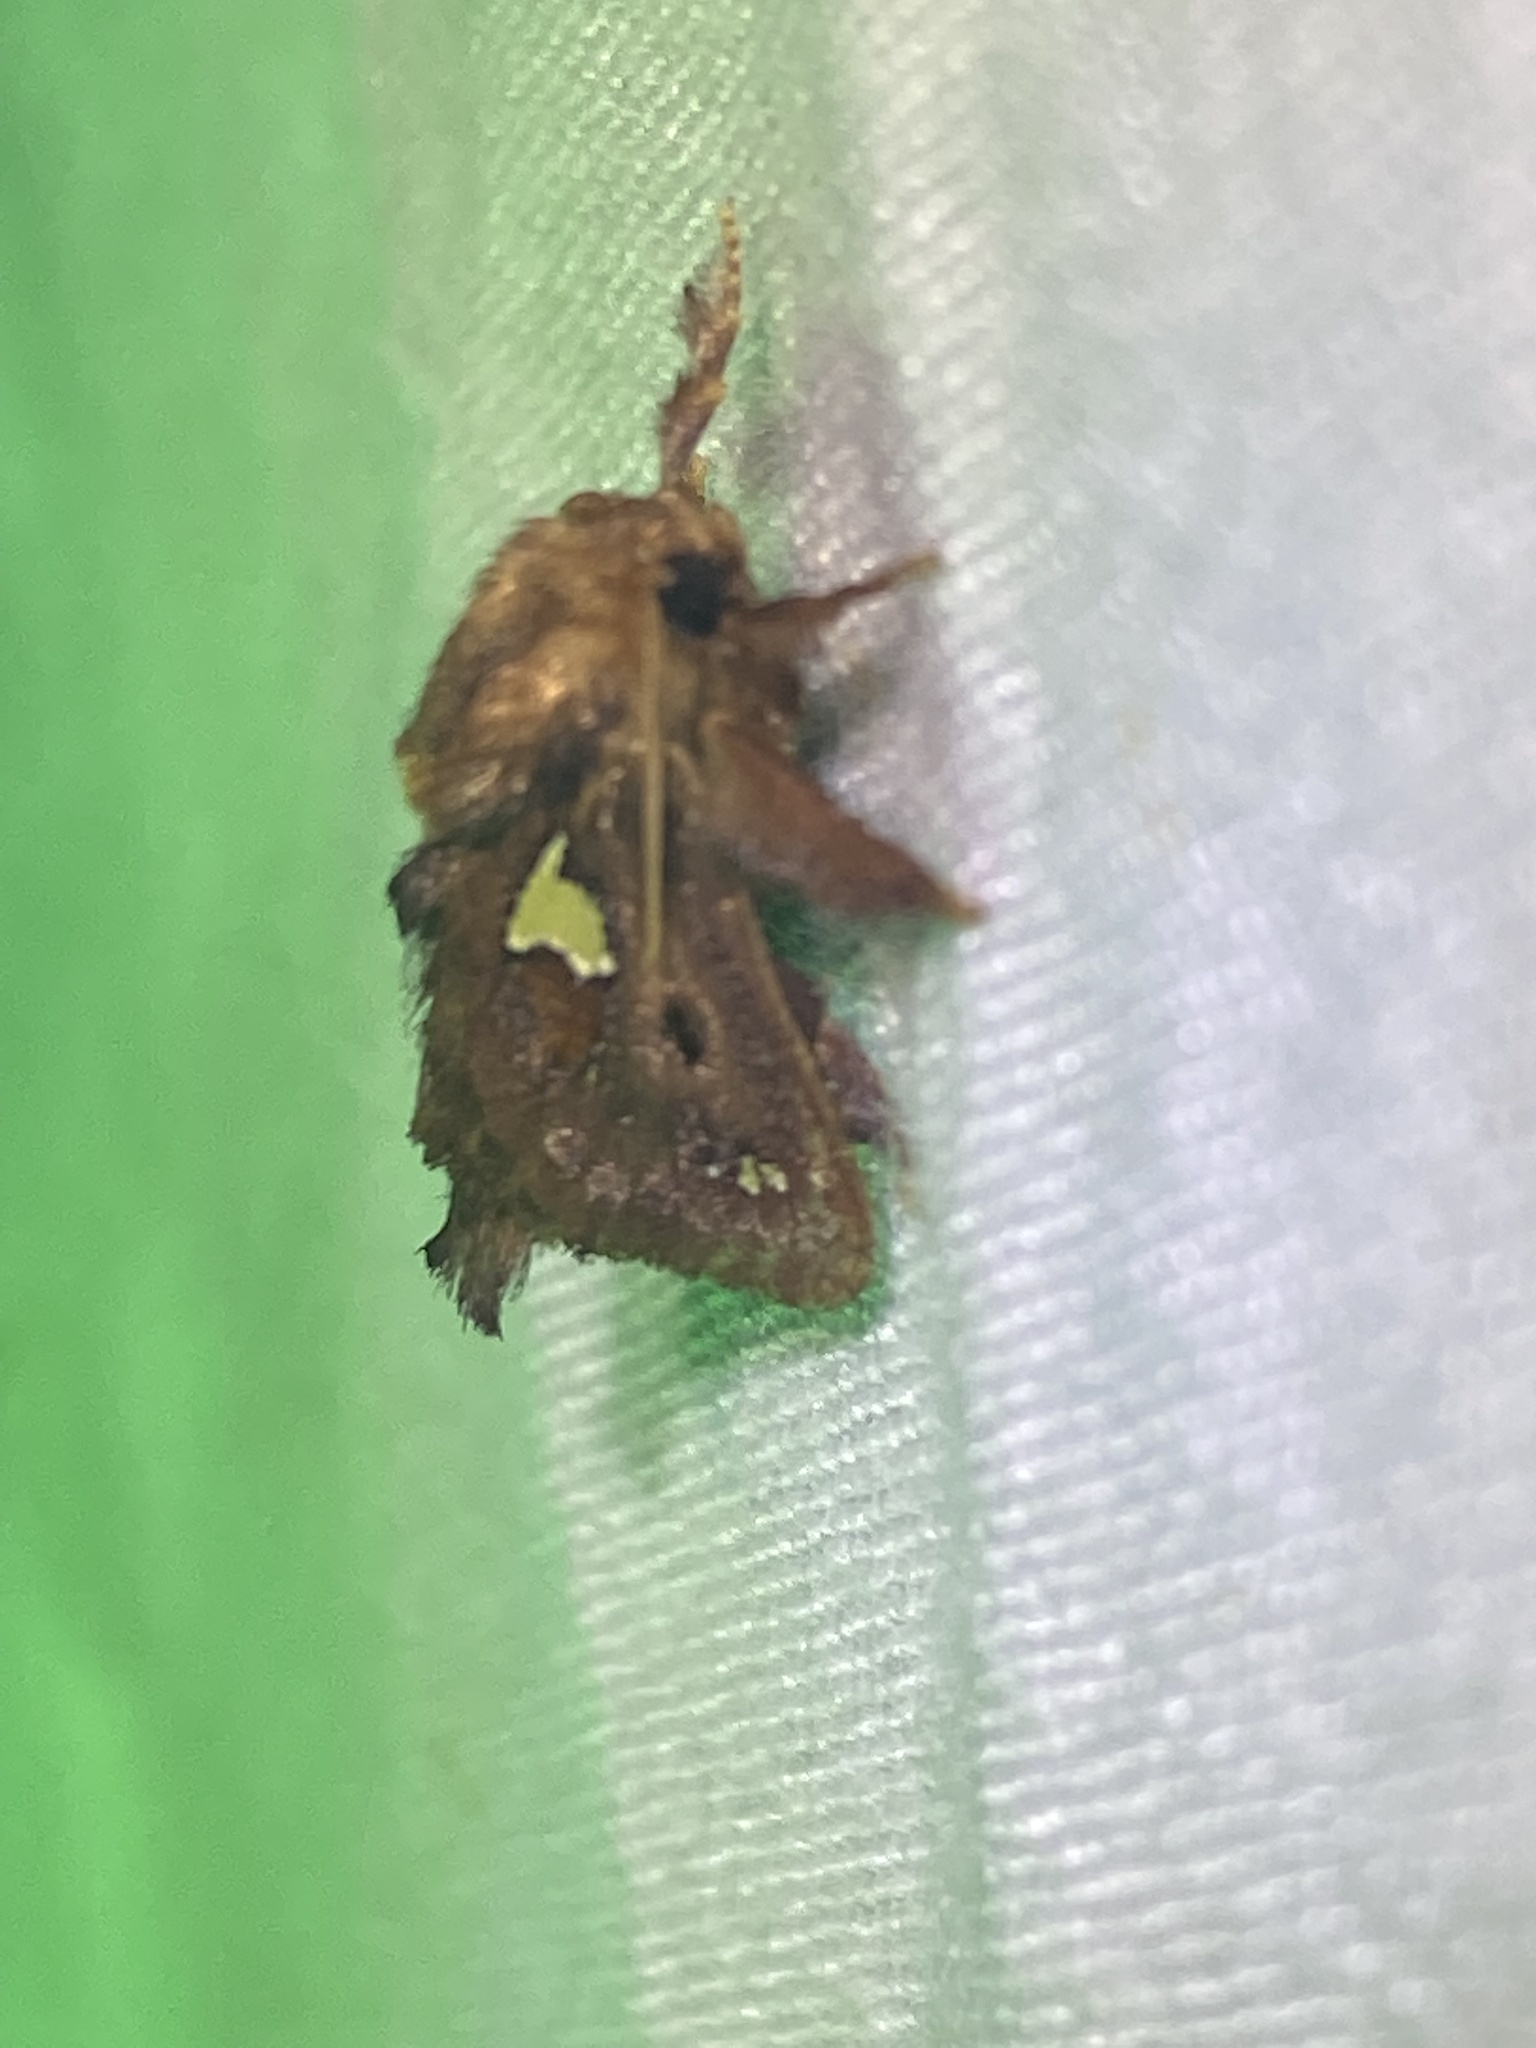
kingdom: Animalia
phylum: Arthropoda
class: Insecta
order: Lepidoptera
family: Limacodidae
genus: Euclea
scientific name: Euclea delphinii
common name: Spiny oak-slug moth
